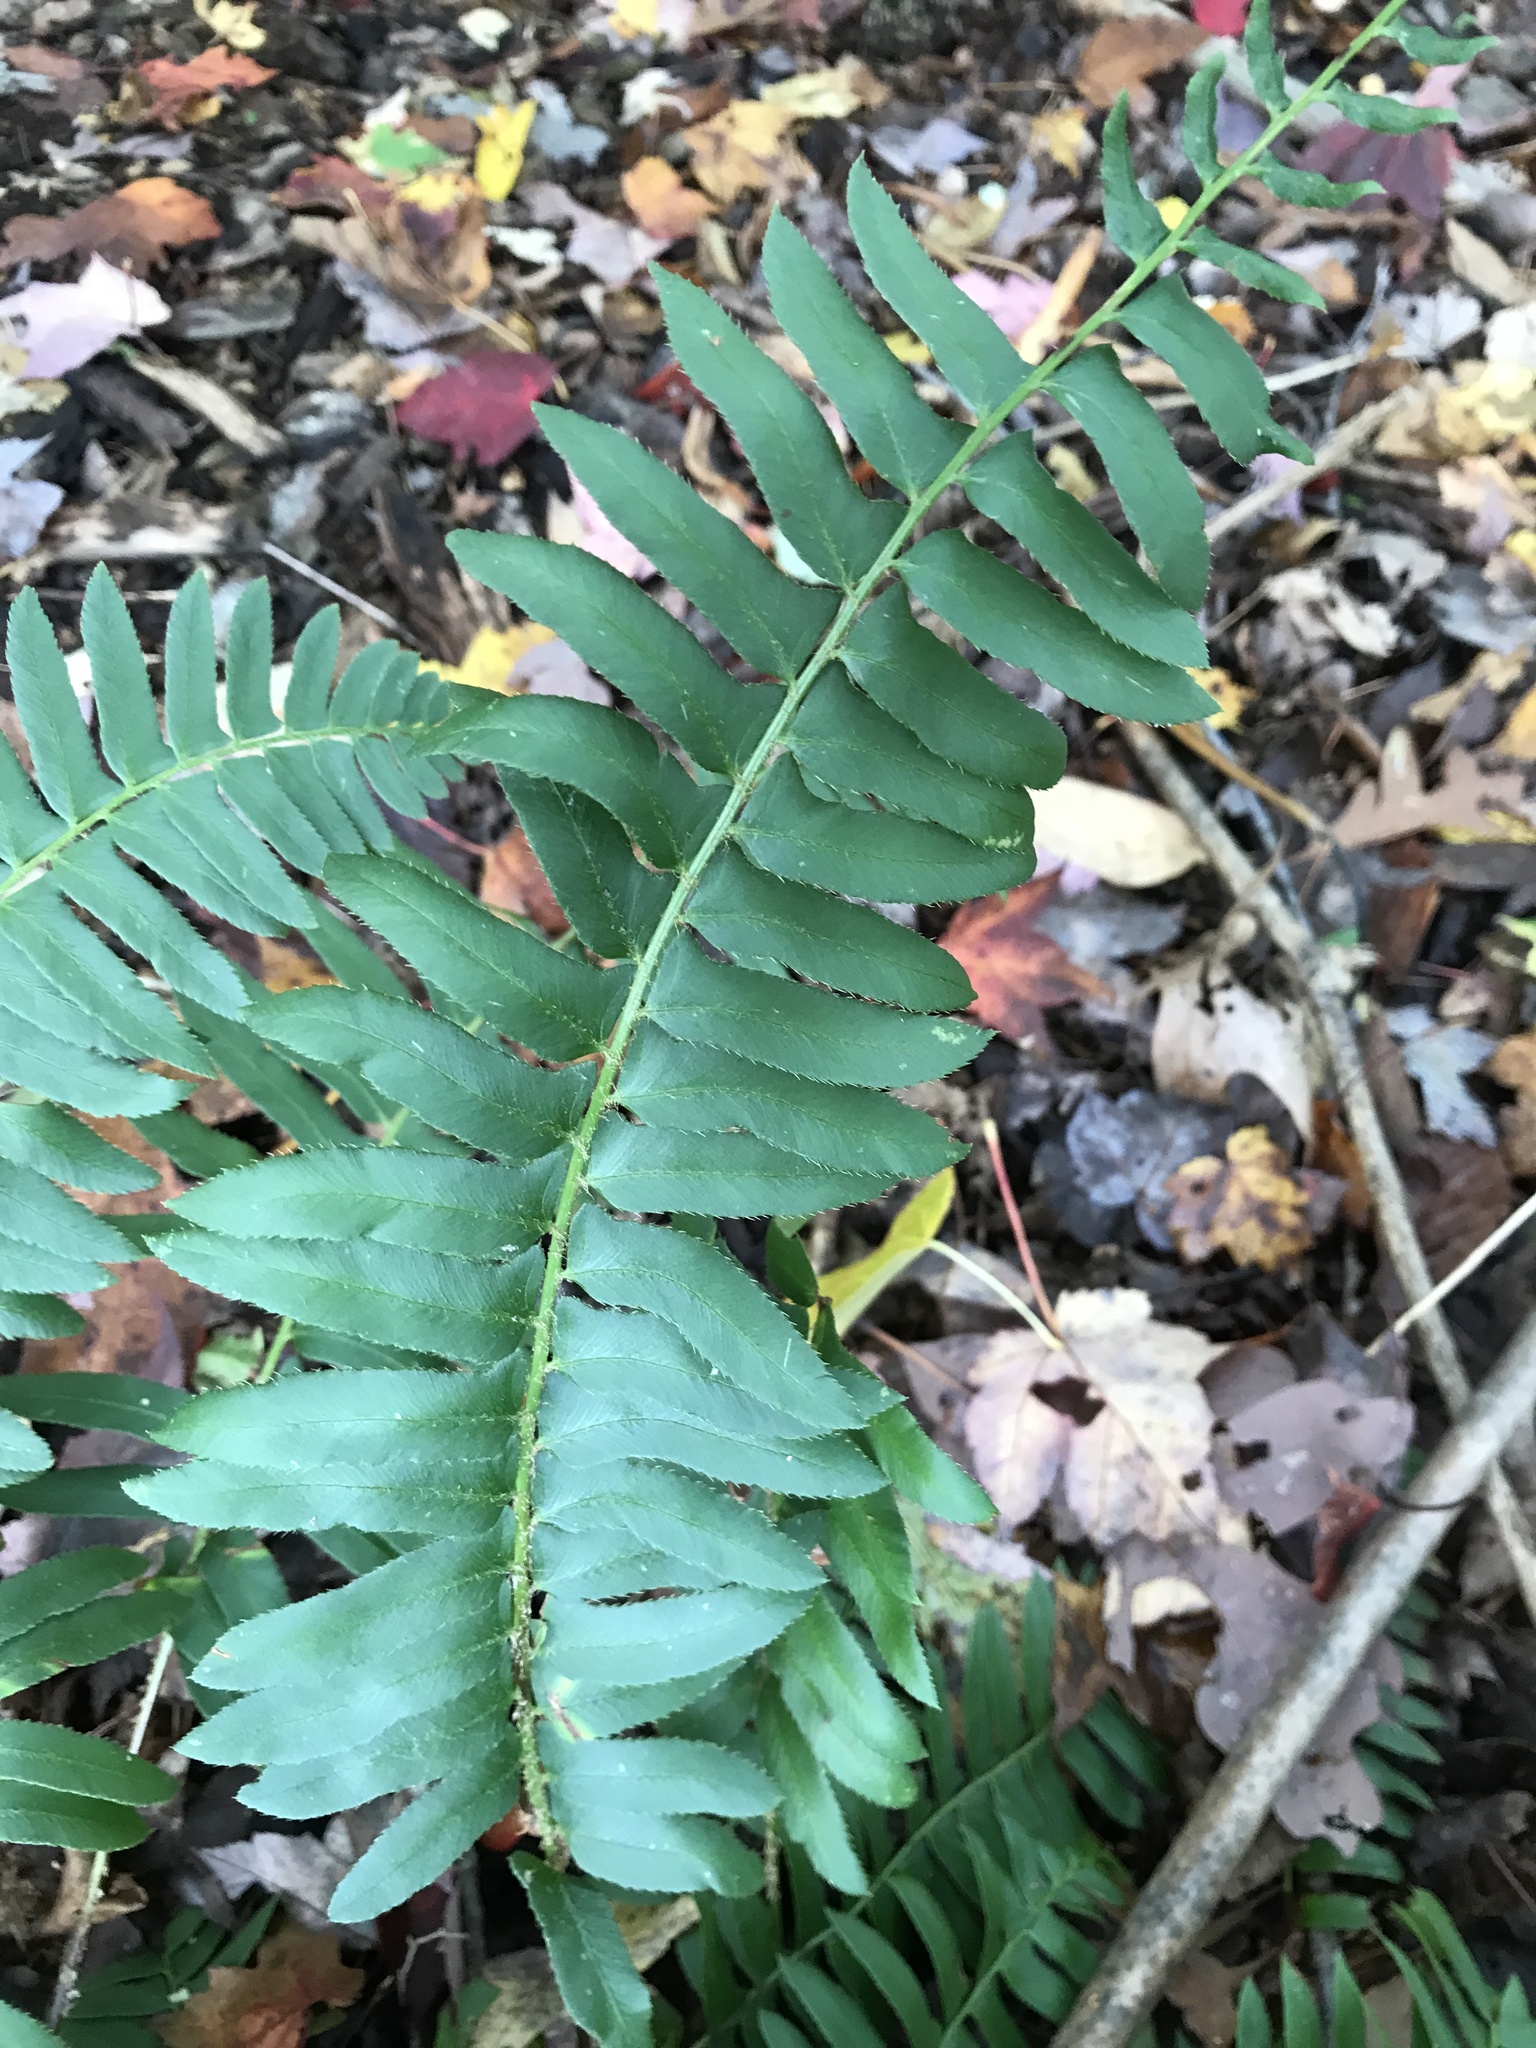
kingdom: Plantae
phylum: Tracheophyta
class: Polypodiopsida
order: Polypodiales
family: Dryopteridaceae
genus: Polystichum
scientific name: Polystichum acrostichoides
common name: Christmas fern
